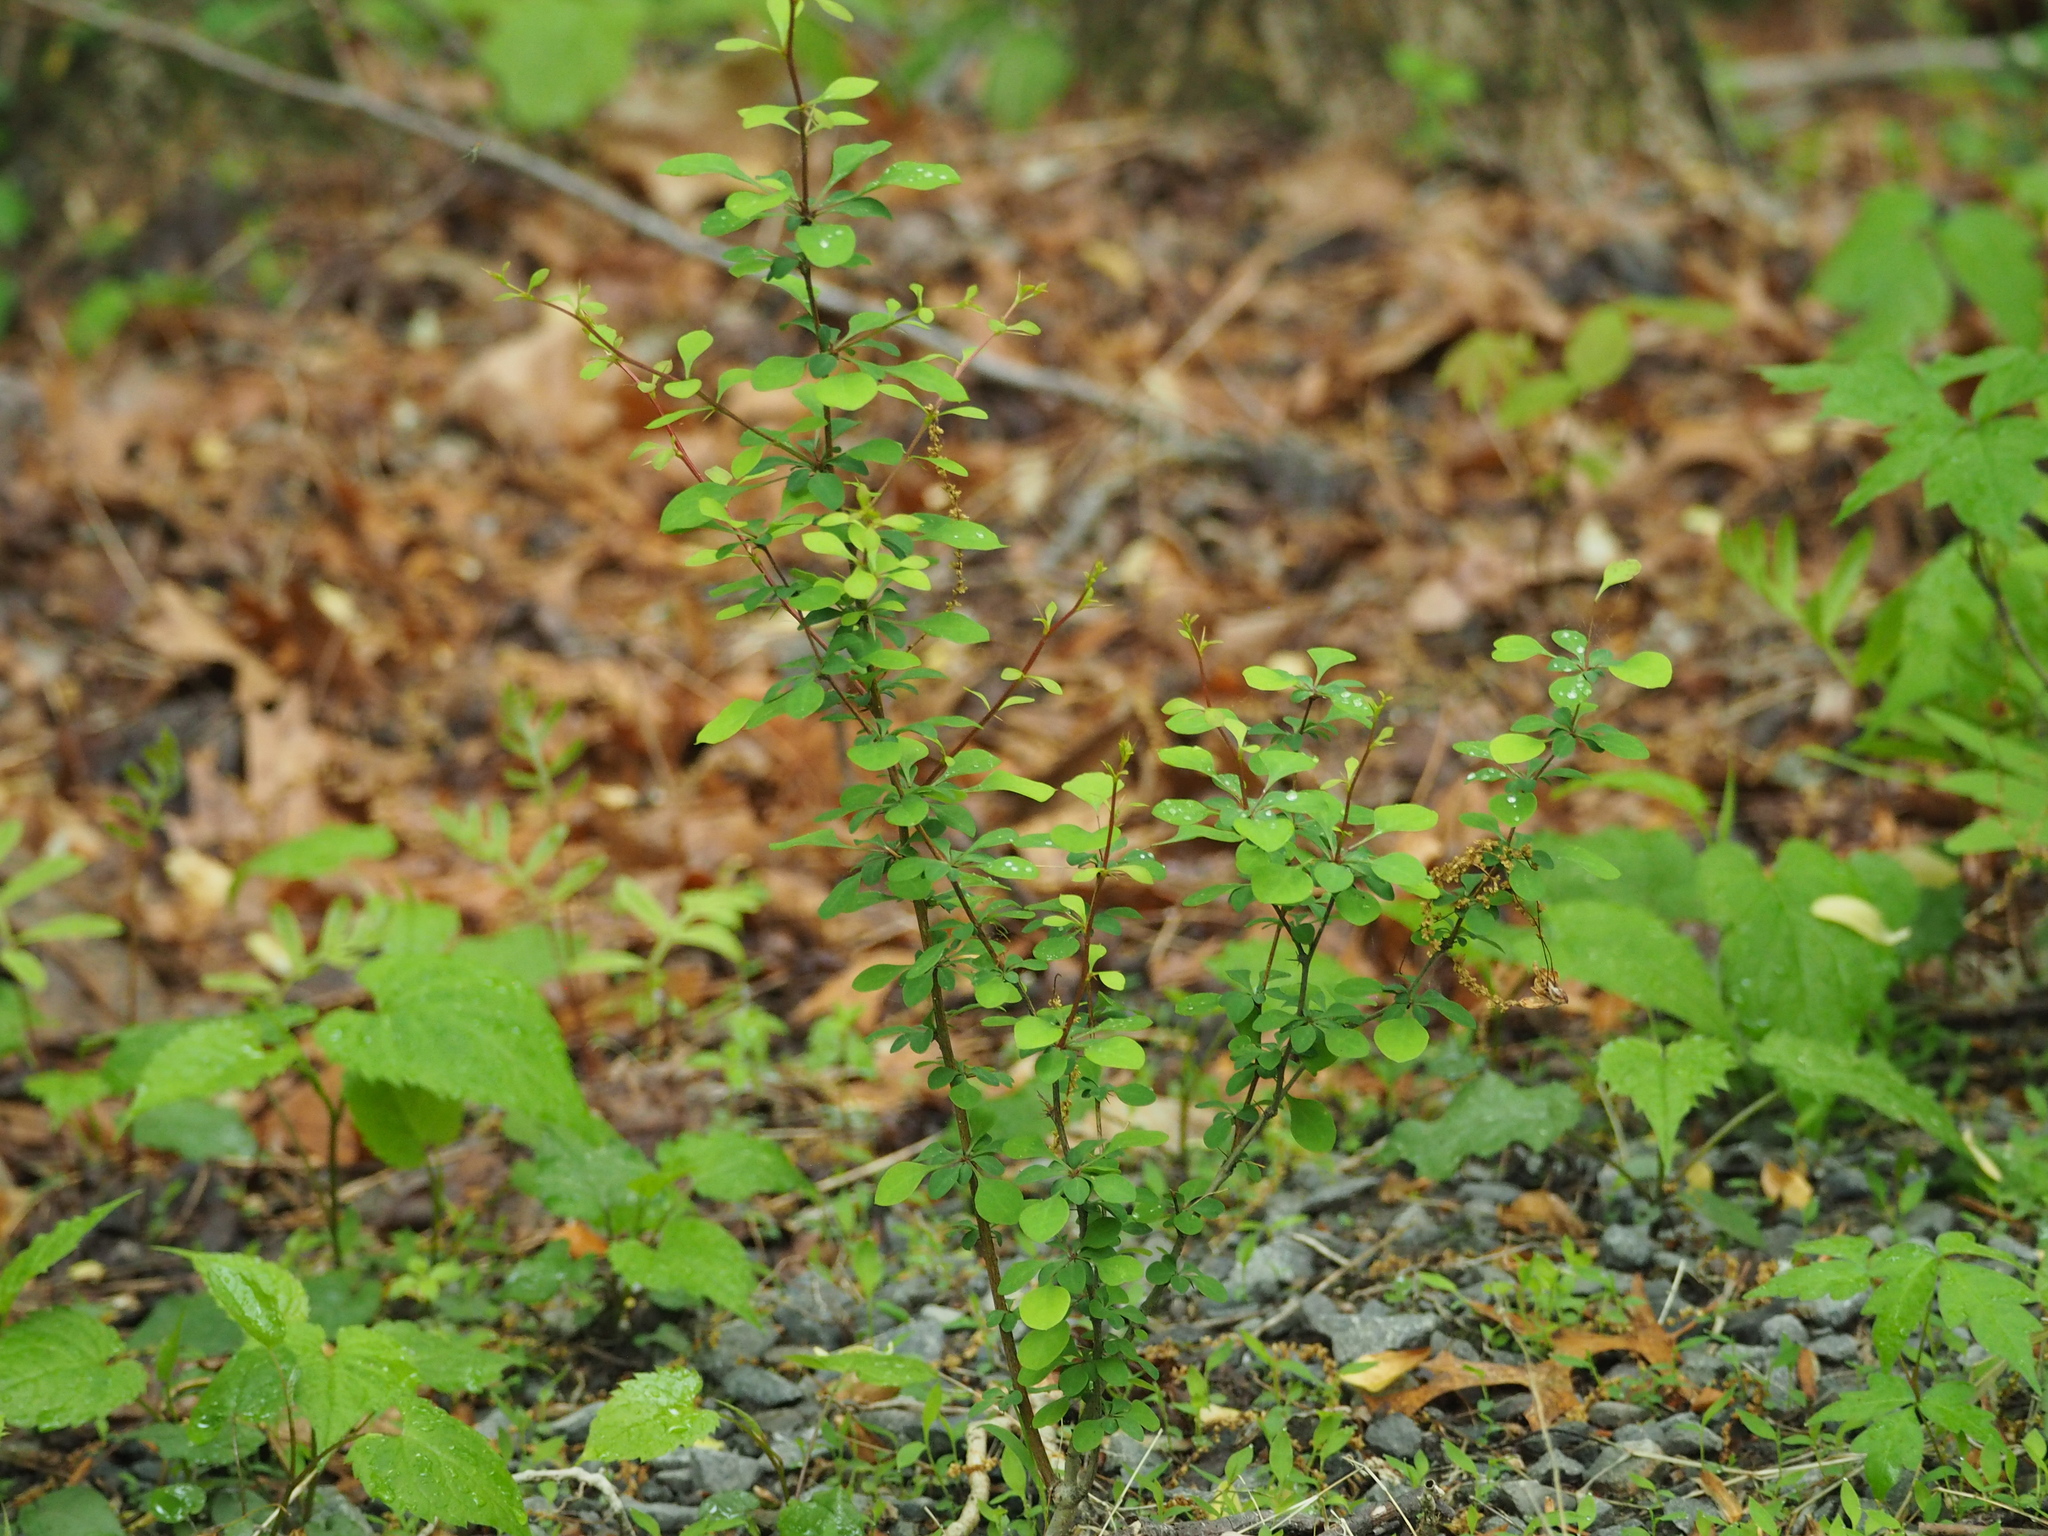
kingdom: Plantae
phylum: Tracheophyta
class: Magnoliopsida
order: Ranunculales
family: Berberidaceae
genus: Berberis
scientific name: Berberis thunbergii
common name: Japanese barberry
